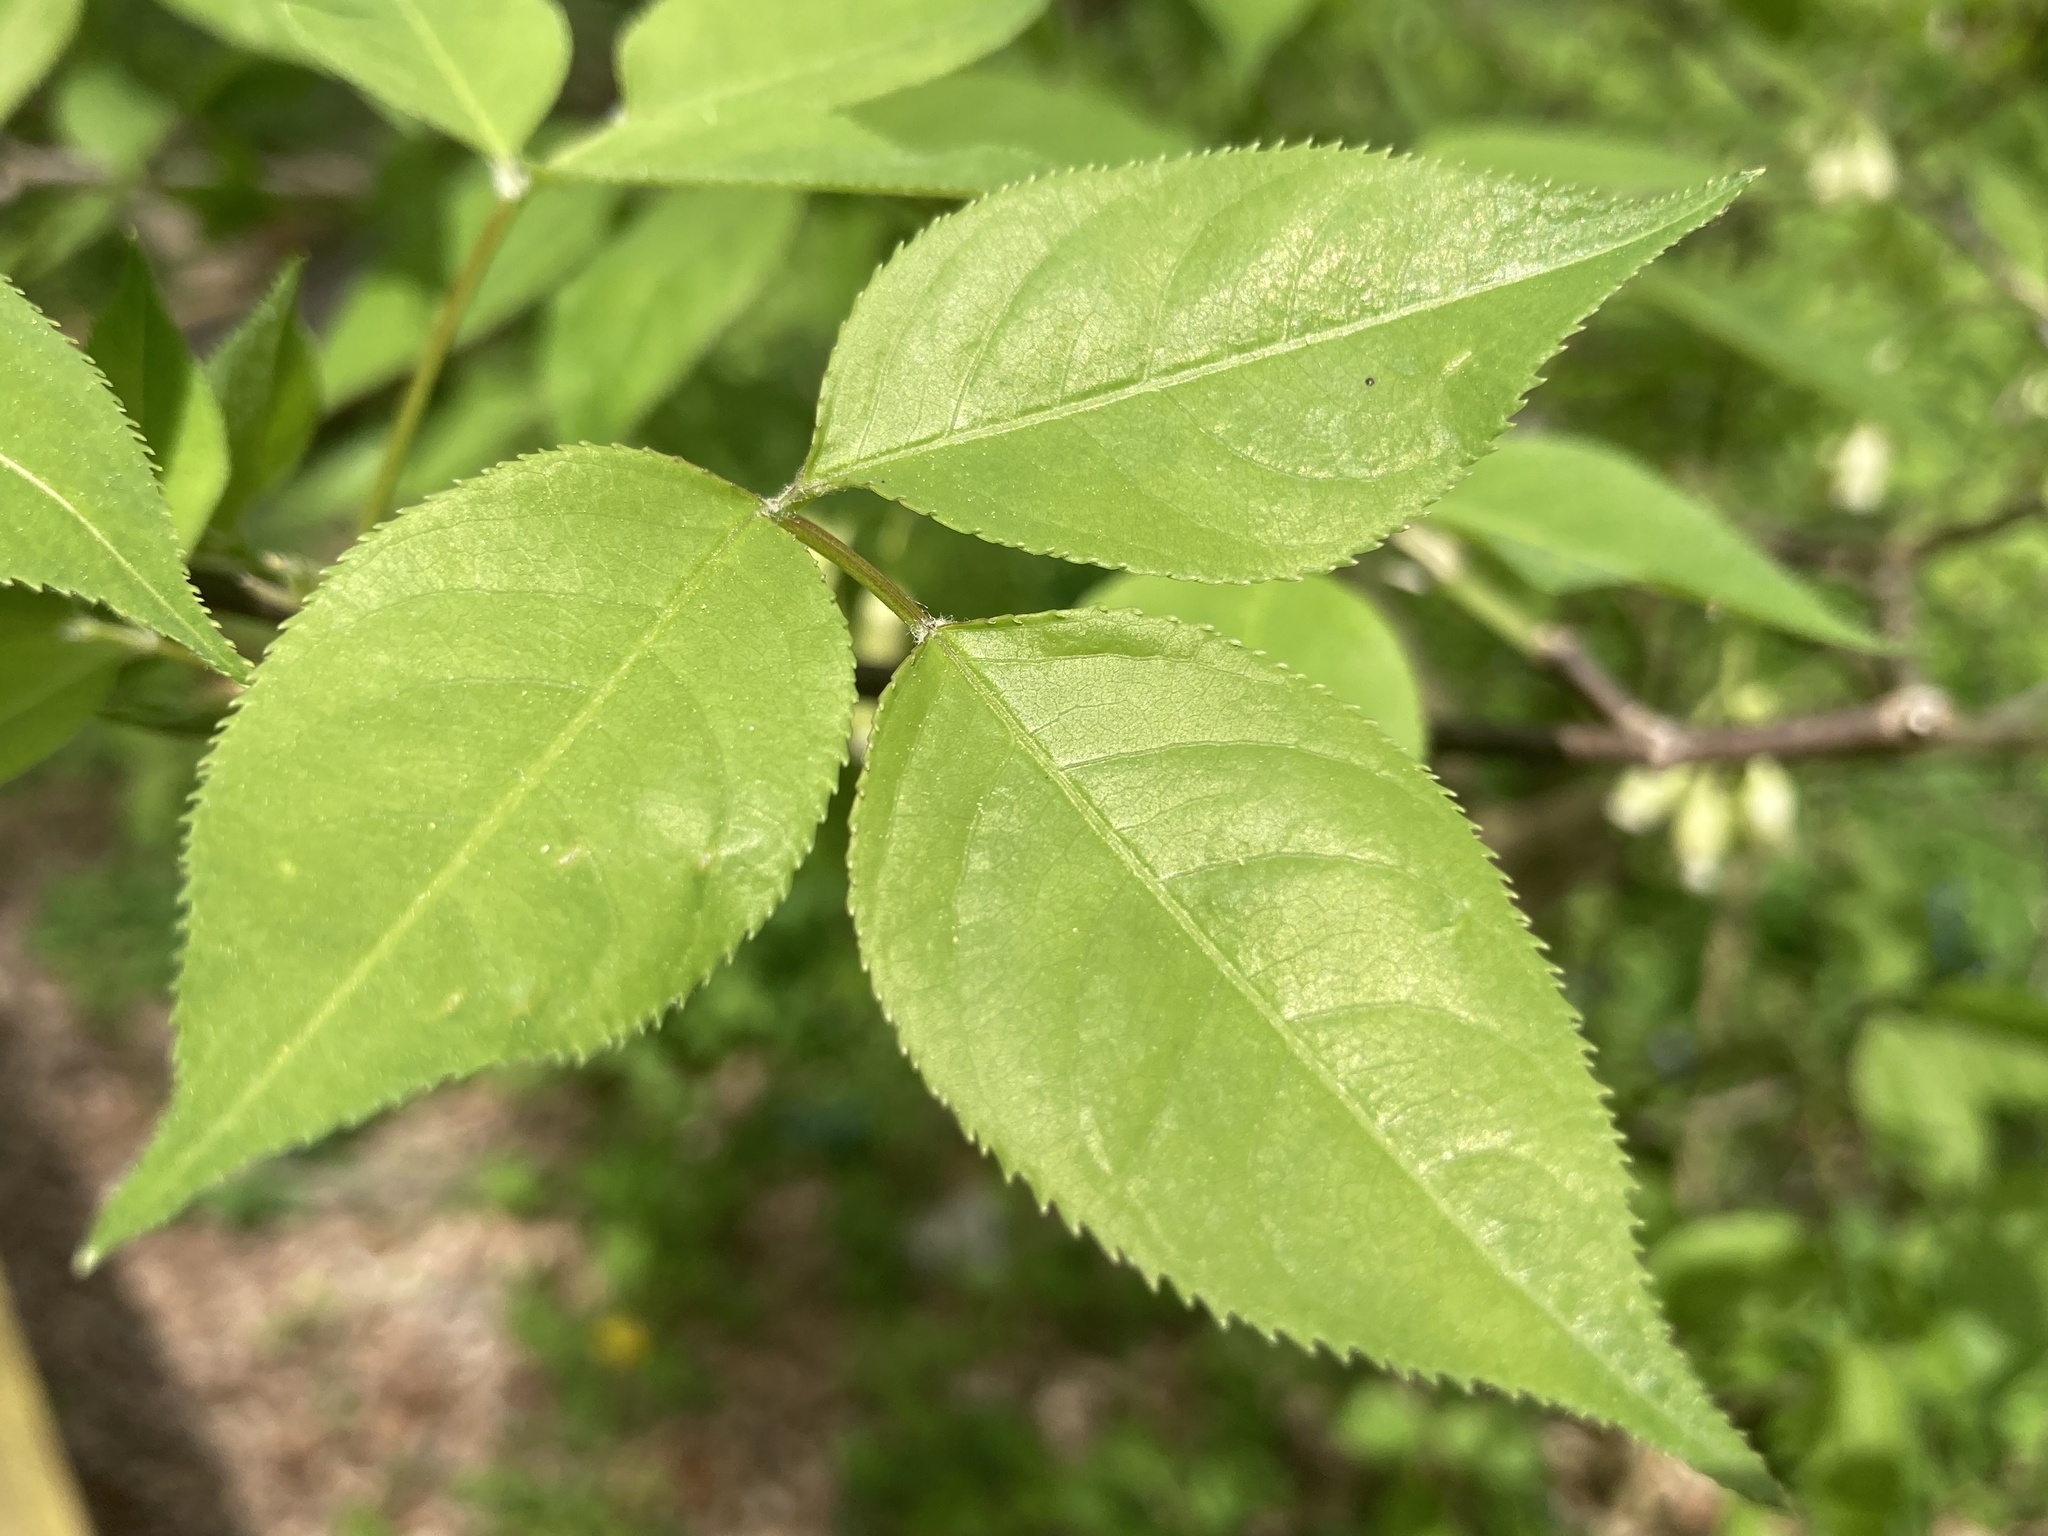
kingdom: Plantae
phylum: Tracheophyta
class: Magnoliopsida
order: Crossosomatales
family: Staphyleaceae
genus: Staphylea
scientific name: Staphylea trifolia
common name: American bladdernut
